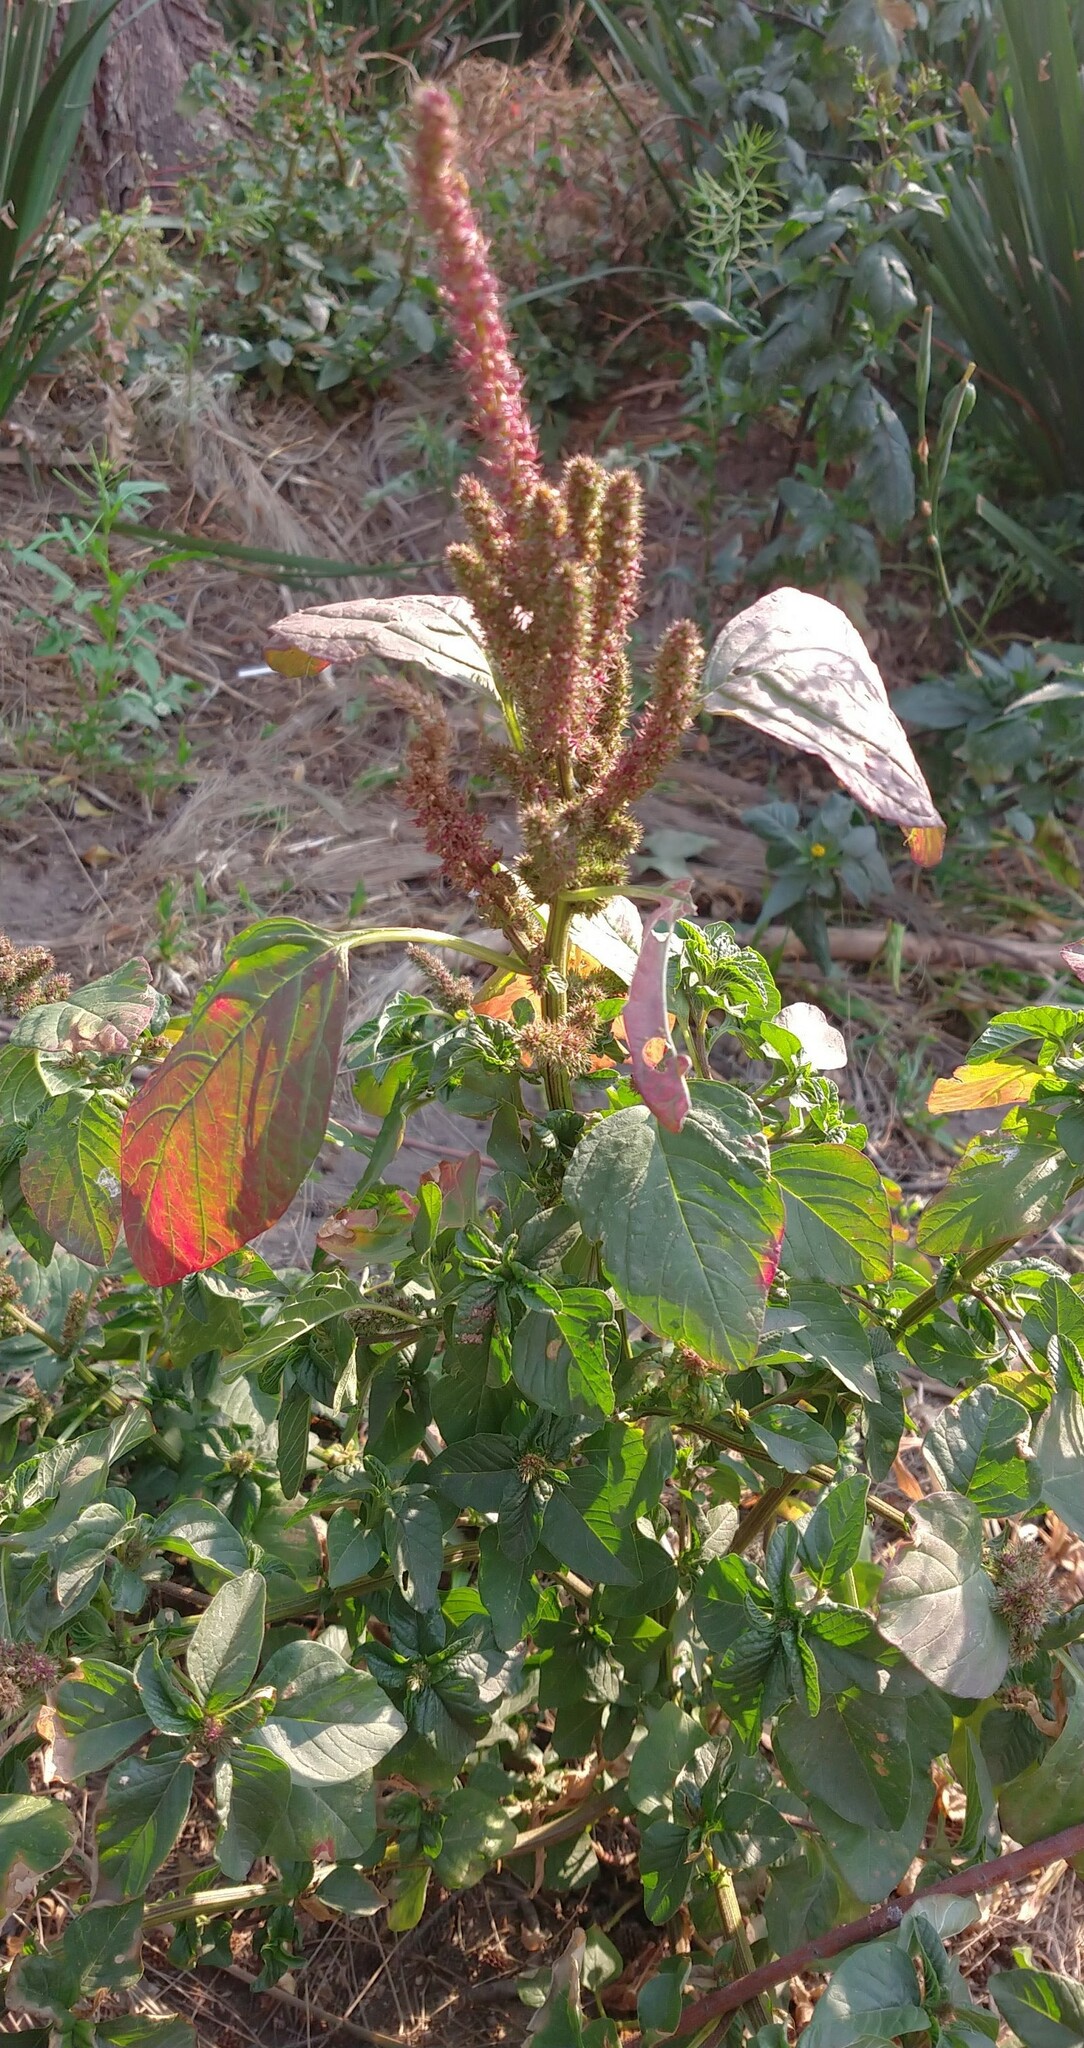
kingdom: Plantae
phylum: Tracheophyta
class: Magnoliopsida
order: Caryophyllales
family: Amaranthaceae
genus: Amaranthus
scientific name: Amaranthus cruentus
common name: Purple amaranth
